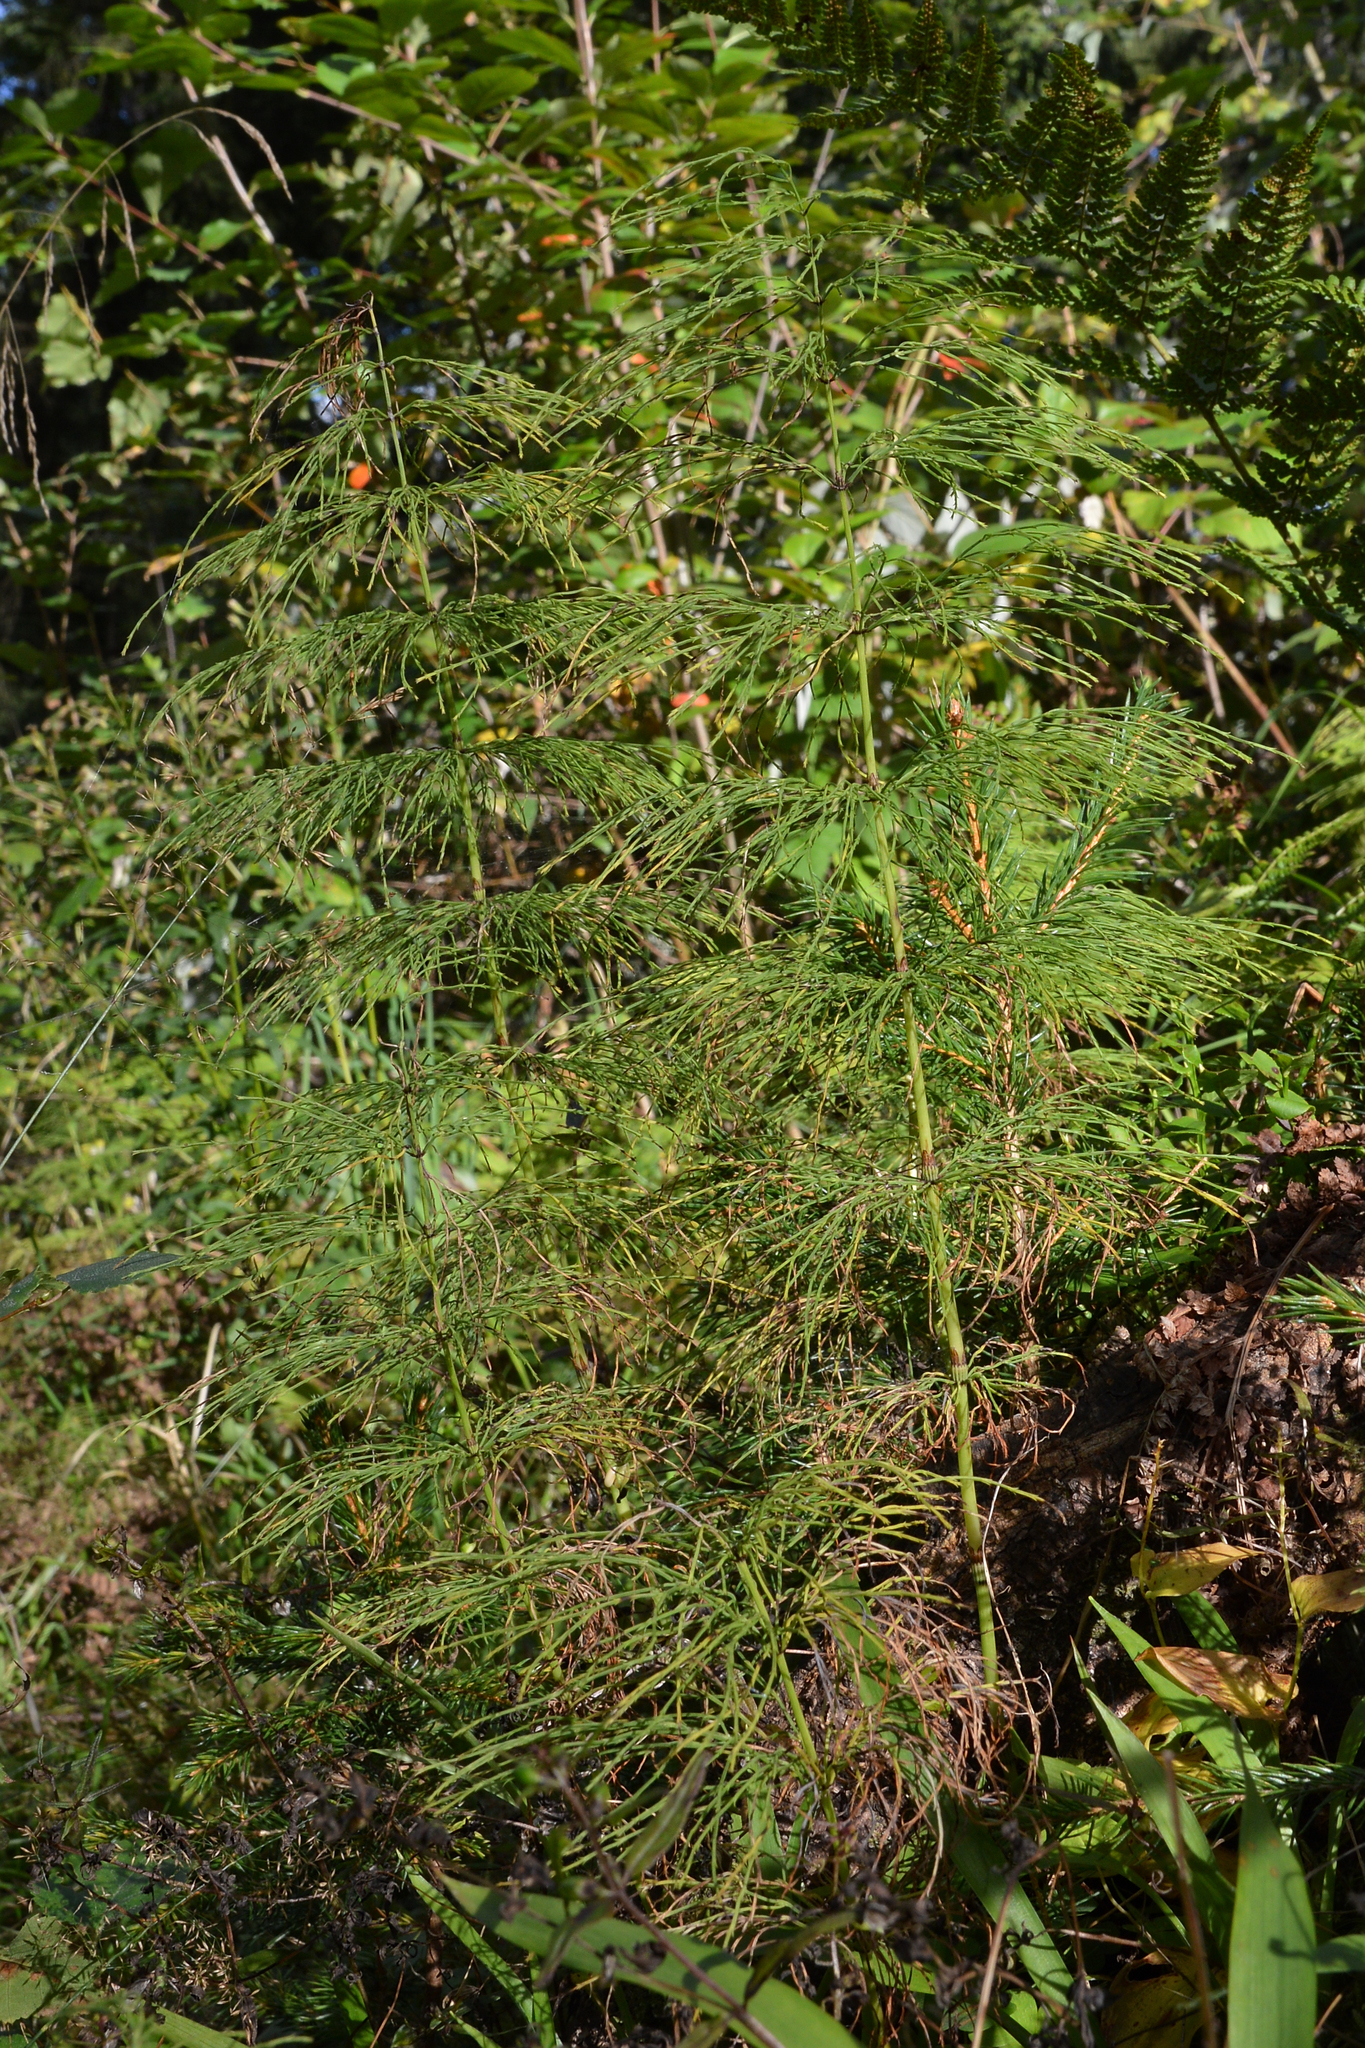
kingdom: Plantae
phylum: Tracheophyta
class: Polypodiopsida
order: Equisetales
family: Equisetaceae
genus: Equisetum
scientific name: Equisetum sylvaticum
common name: Wood horsetail
